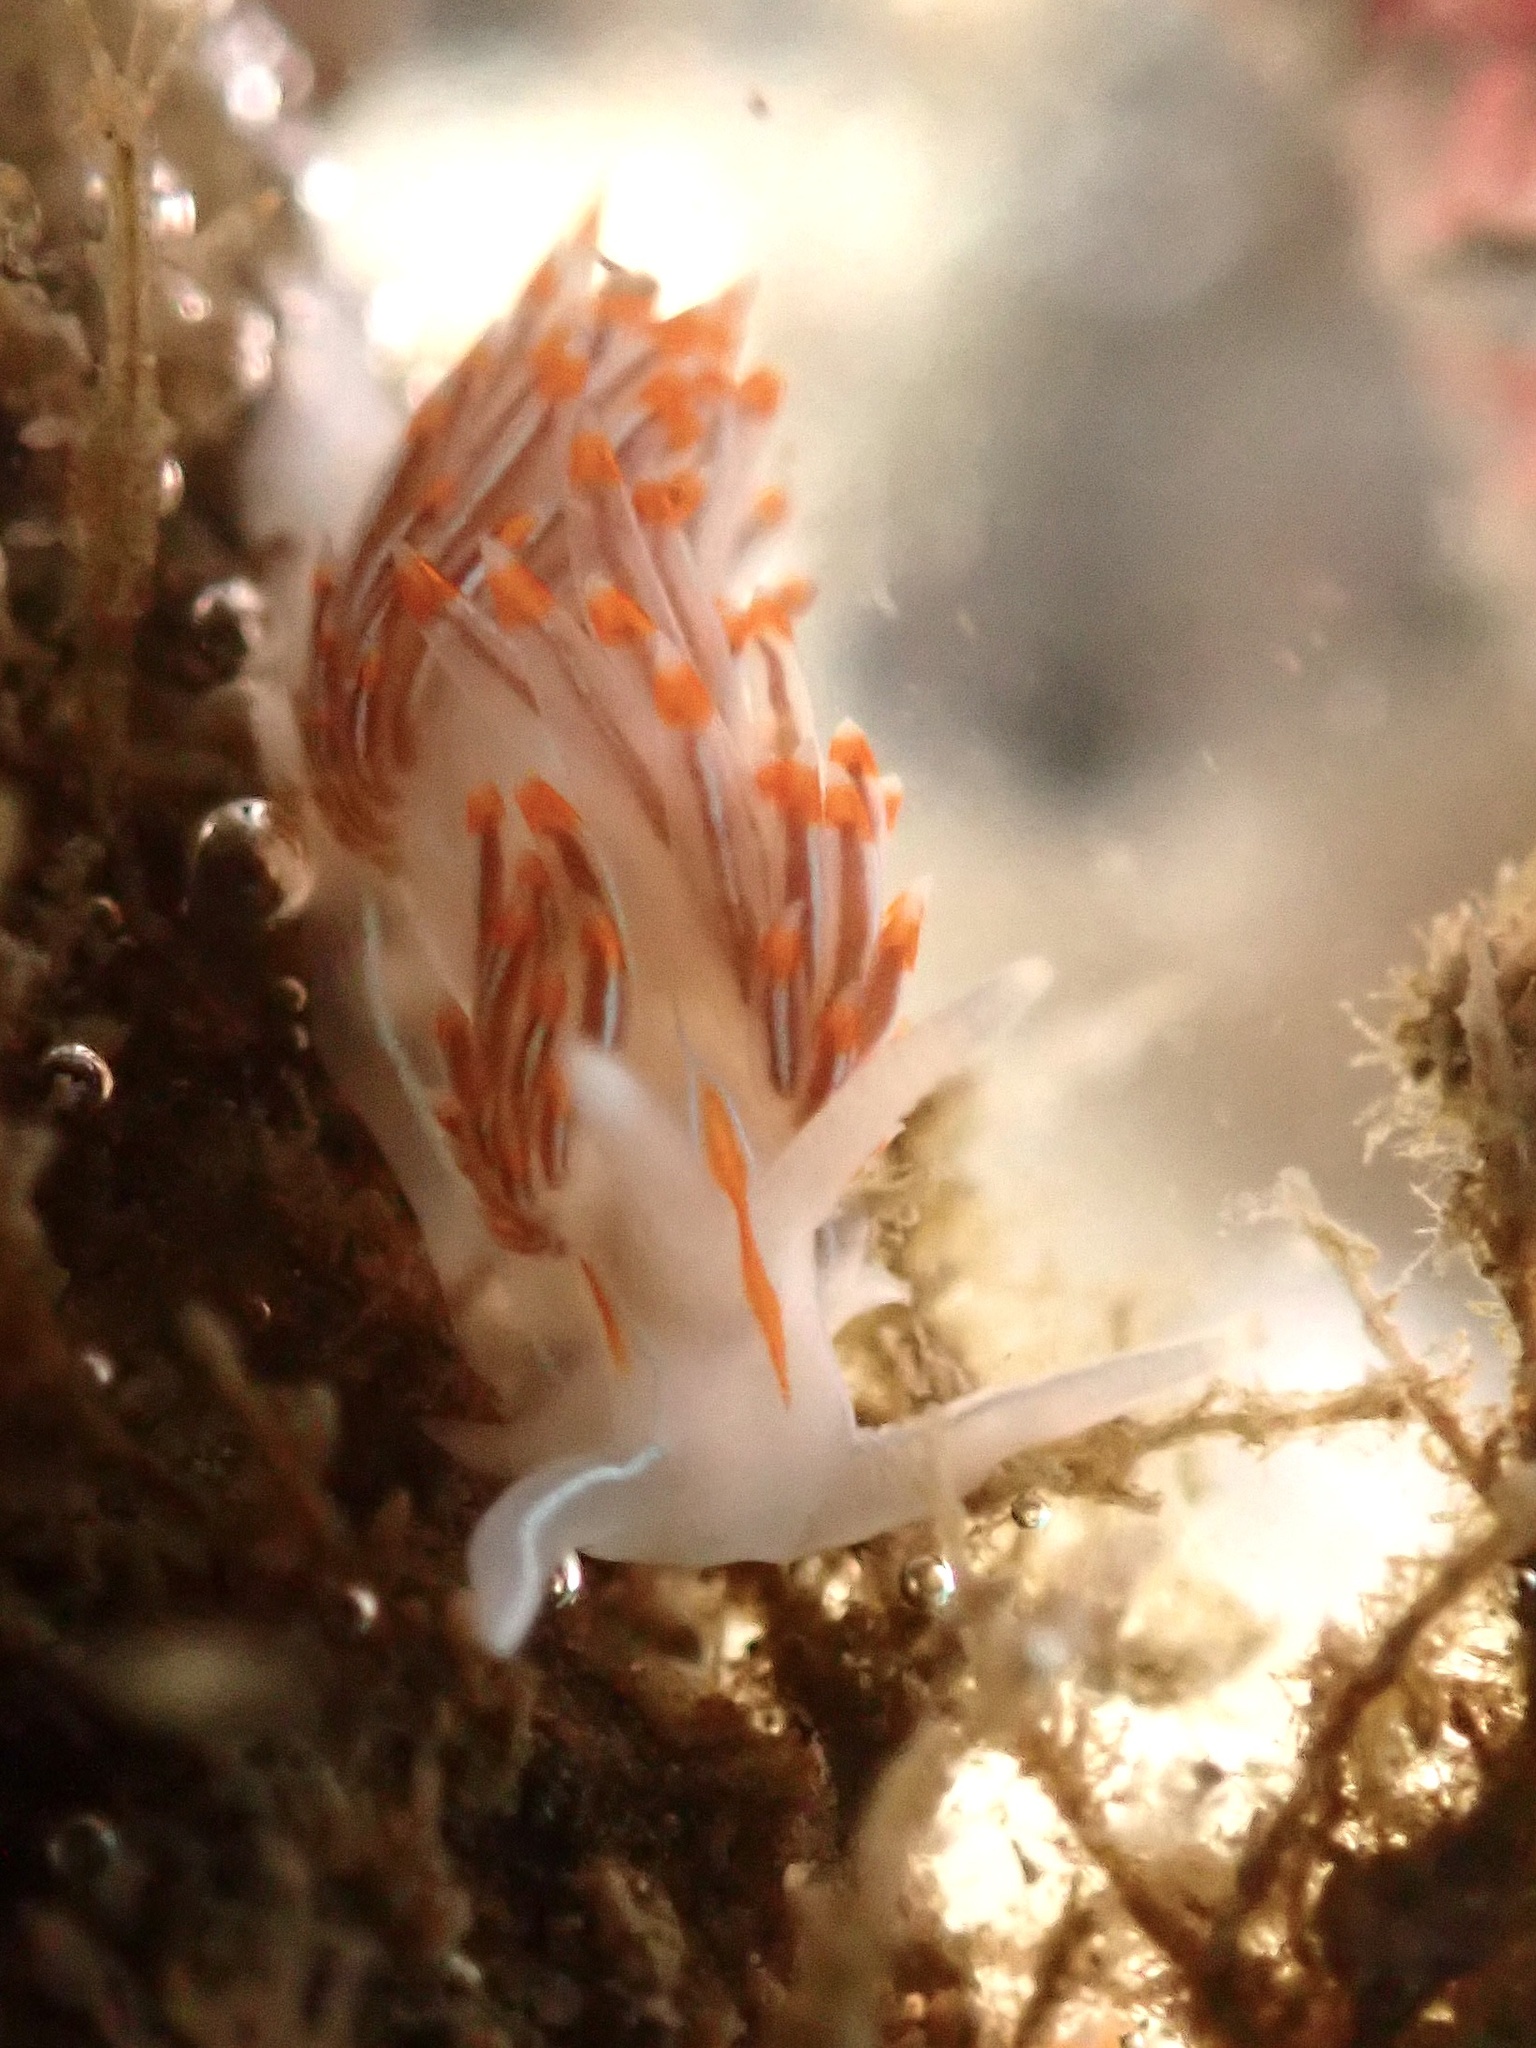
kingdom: Animalia
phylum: Mollusca
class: Gastropoda
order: Nudibranchia
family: Myrrhinidae
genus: Hermissenda
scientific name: Hermissenda crassicornis
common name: Hermissenda
